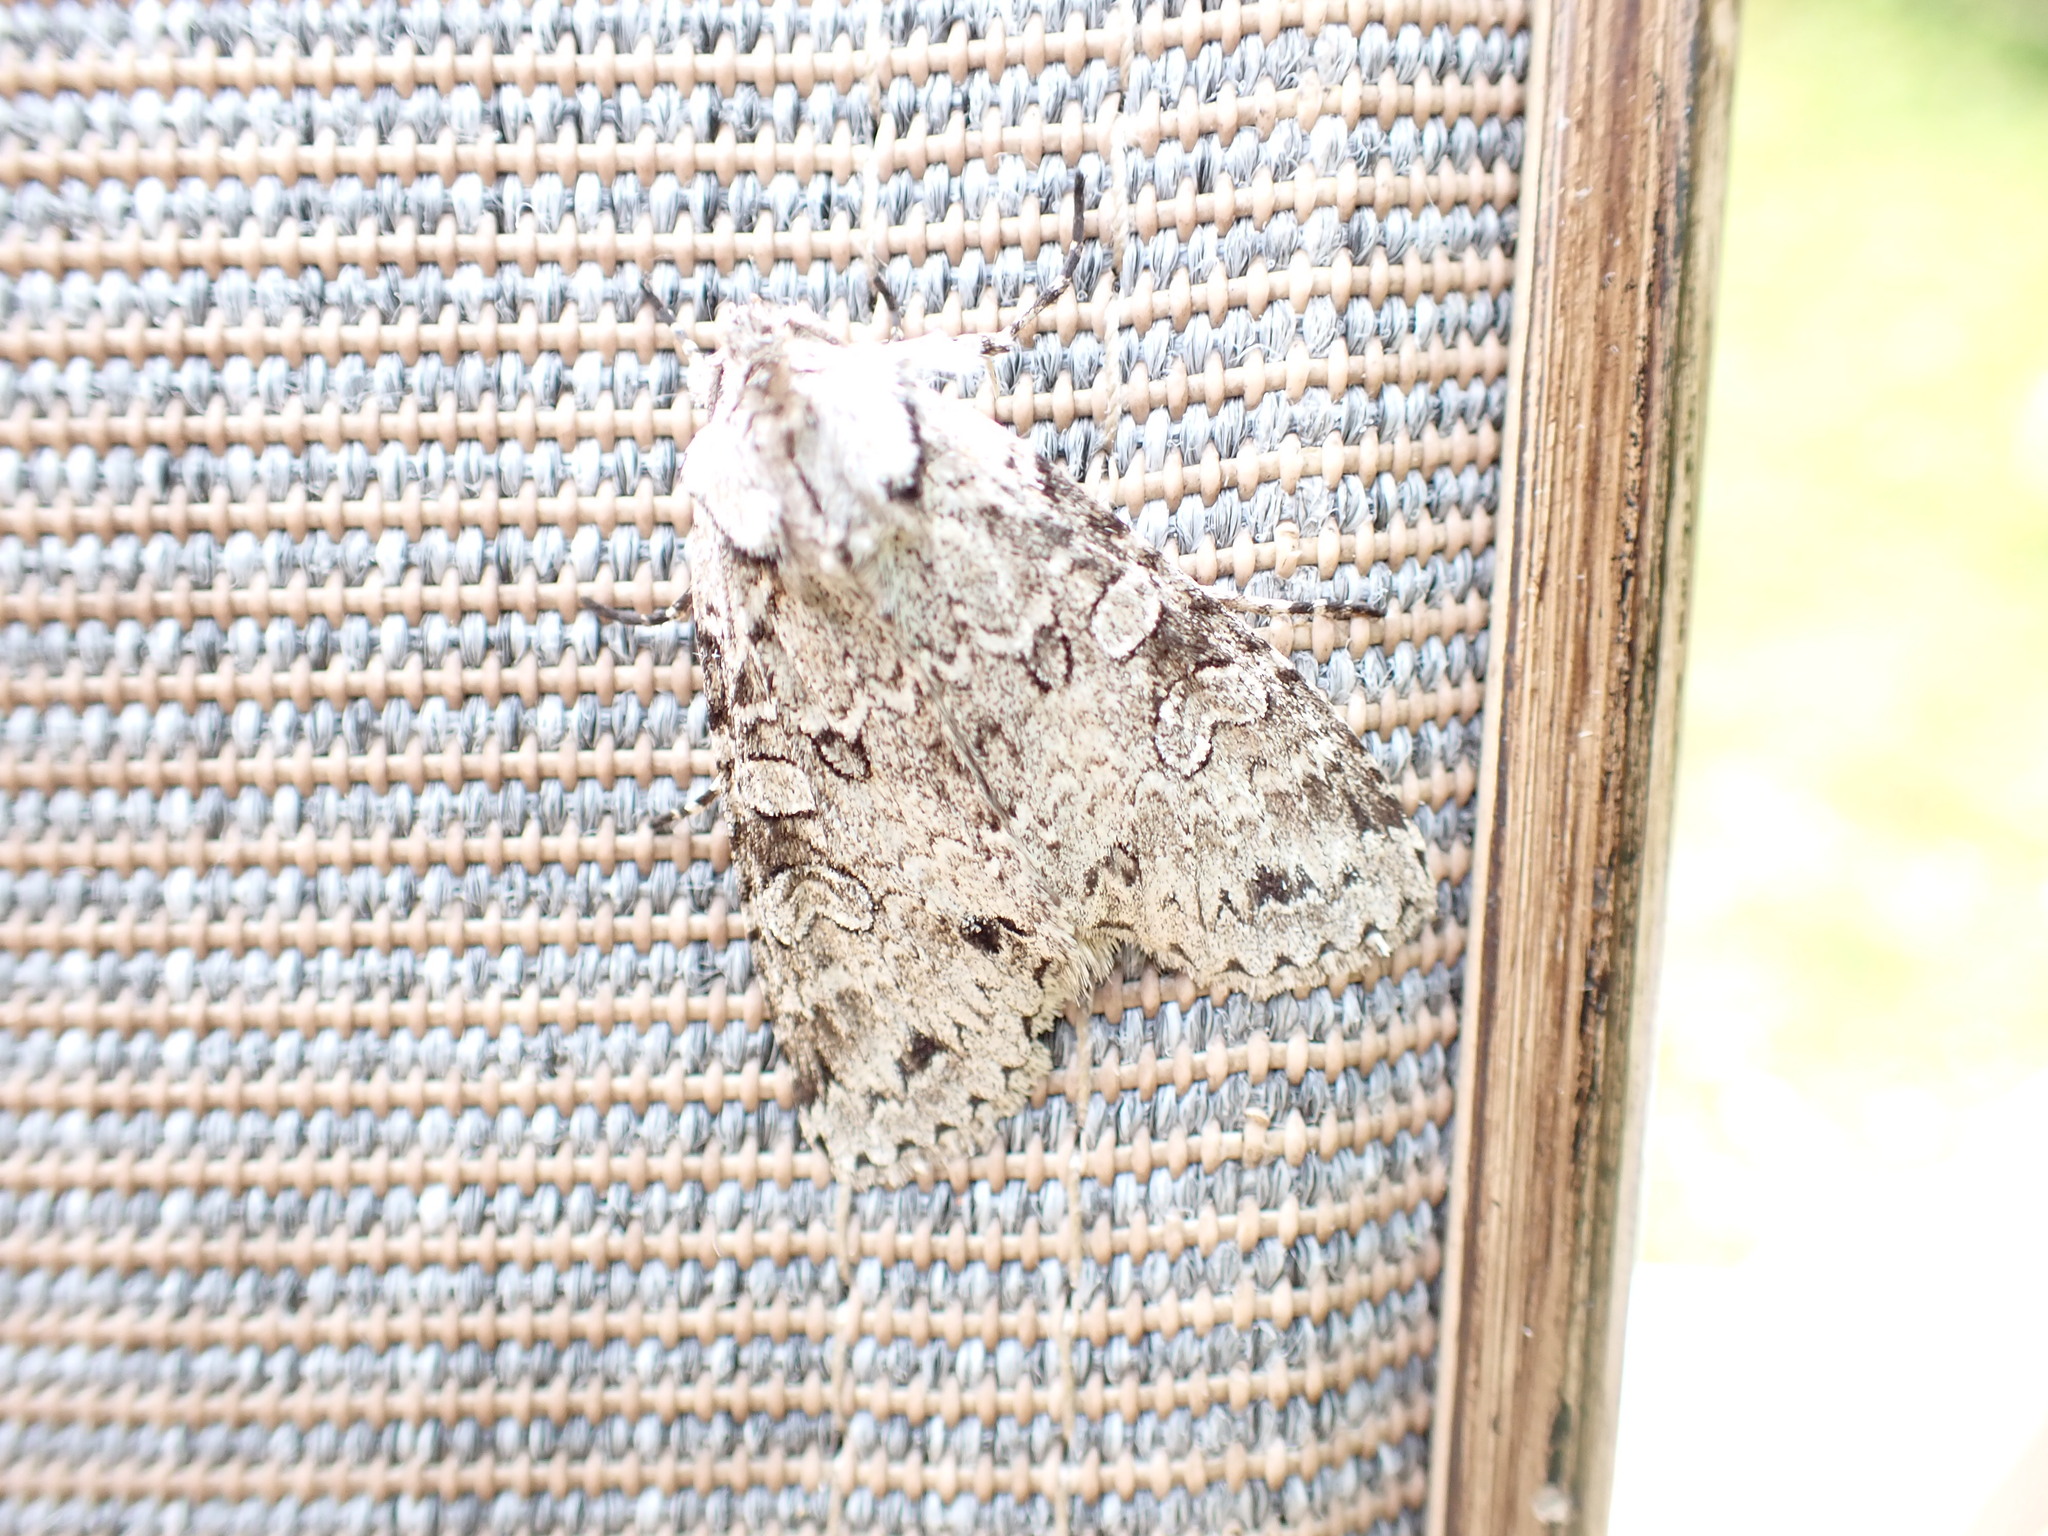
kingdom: Animalia
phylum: Arthropoda
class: Insecta
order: Lepidoptera
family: Noctuidae
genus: Polia
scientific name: Polia nimbosa
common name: Stormy arches
